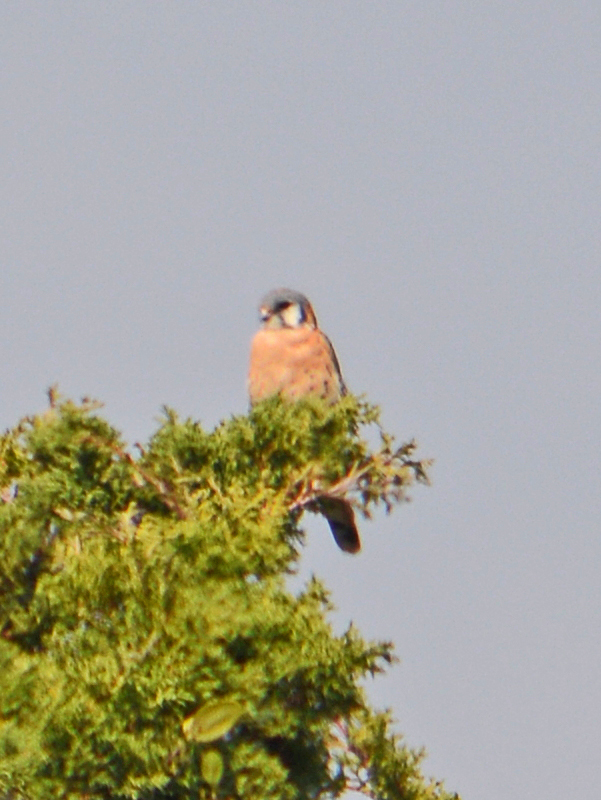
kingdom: Animalia
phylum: Chordata
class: Aves
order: Falconiformes
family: Falconidae
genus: Falco
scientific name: Falco sparverius
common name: American kestrel
